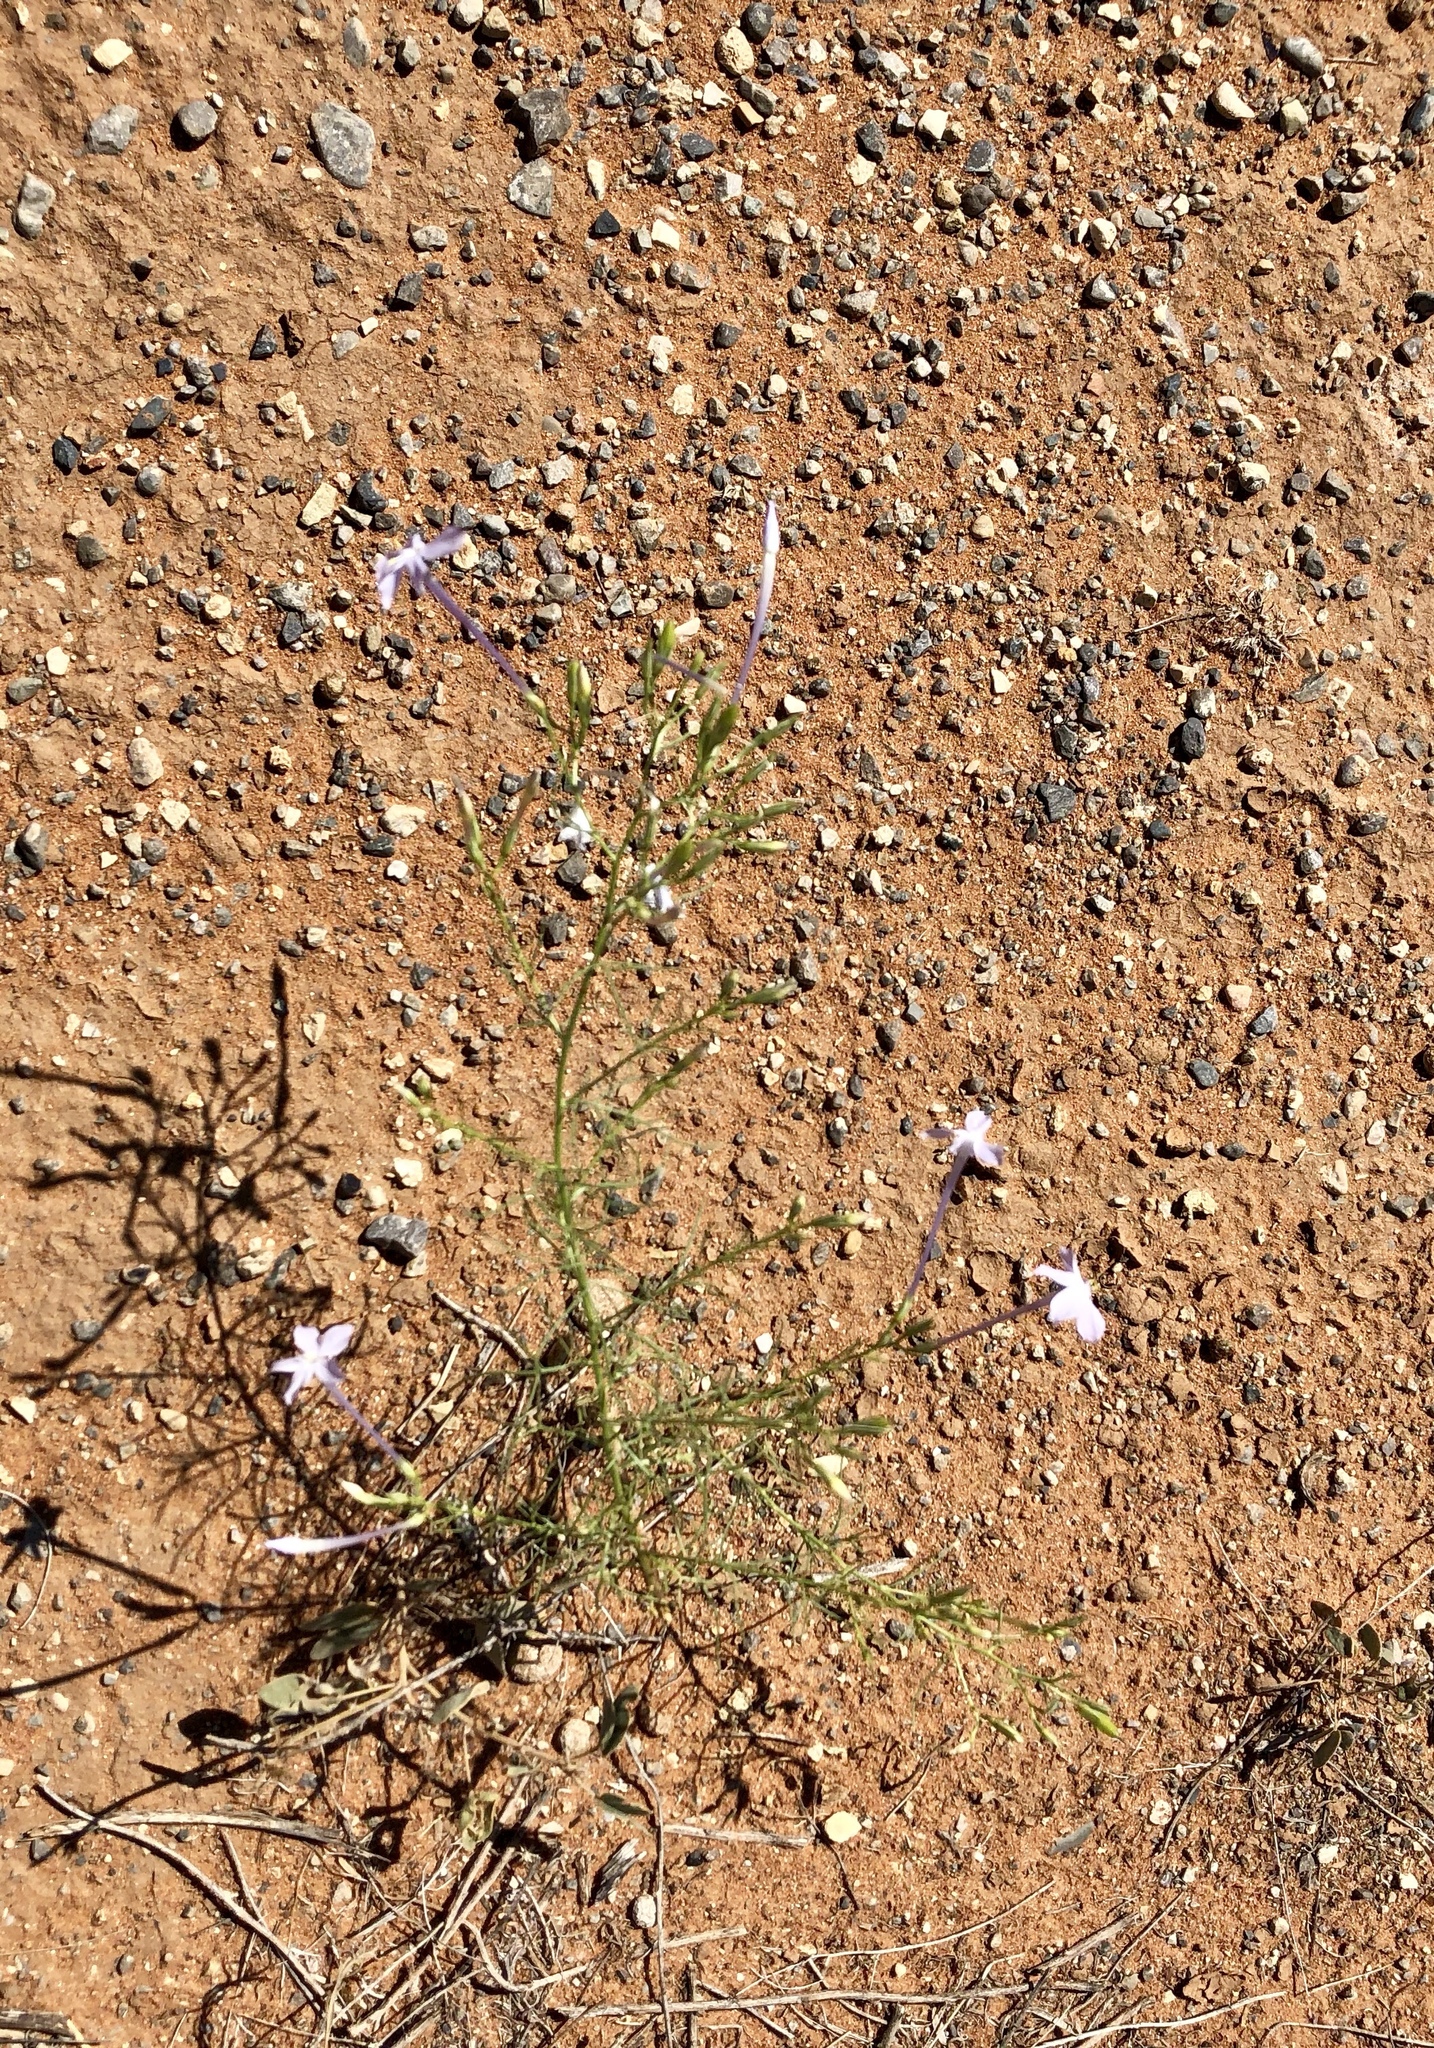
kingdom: Plantae
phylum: Tracheophyta
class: Magnoliopsida
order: Ericales
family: Polemoniaceae
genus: Ipomopsis
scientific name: Ipomopsis longiflora
